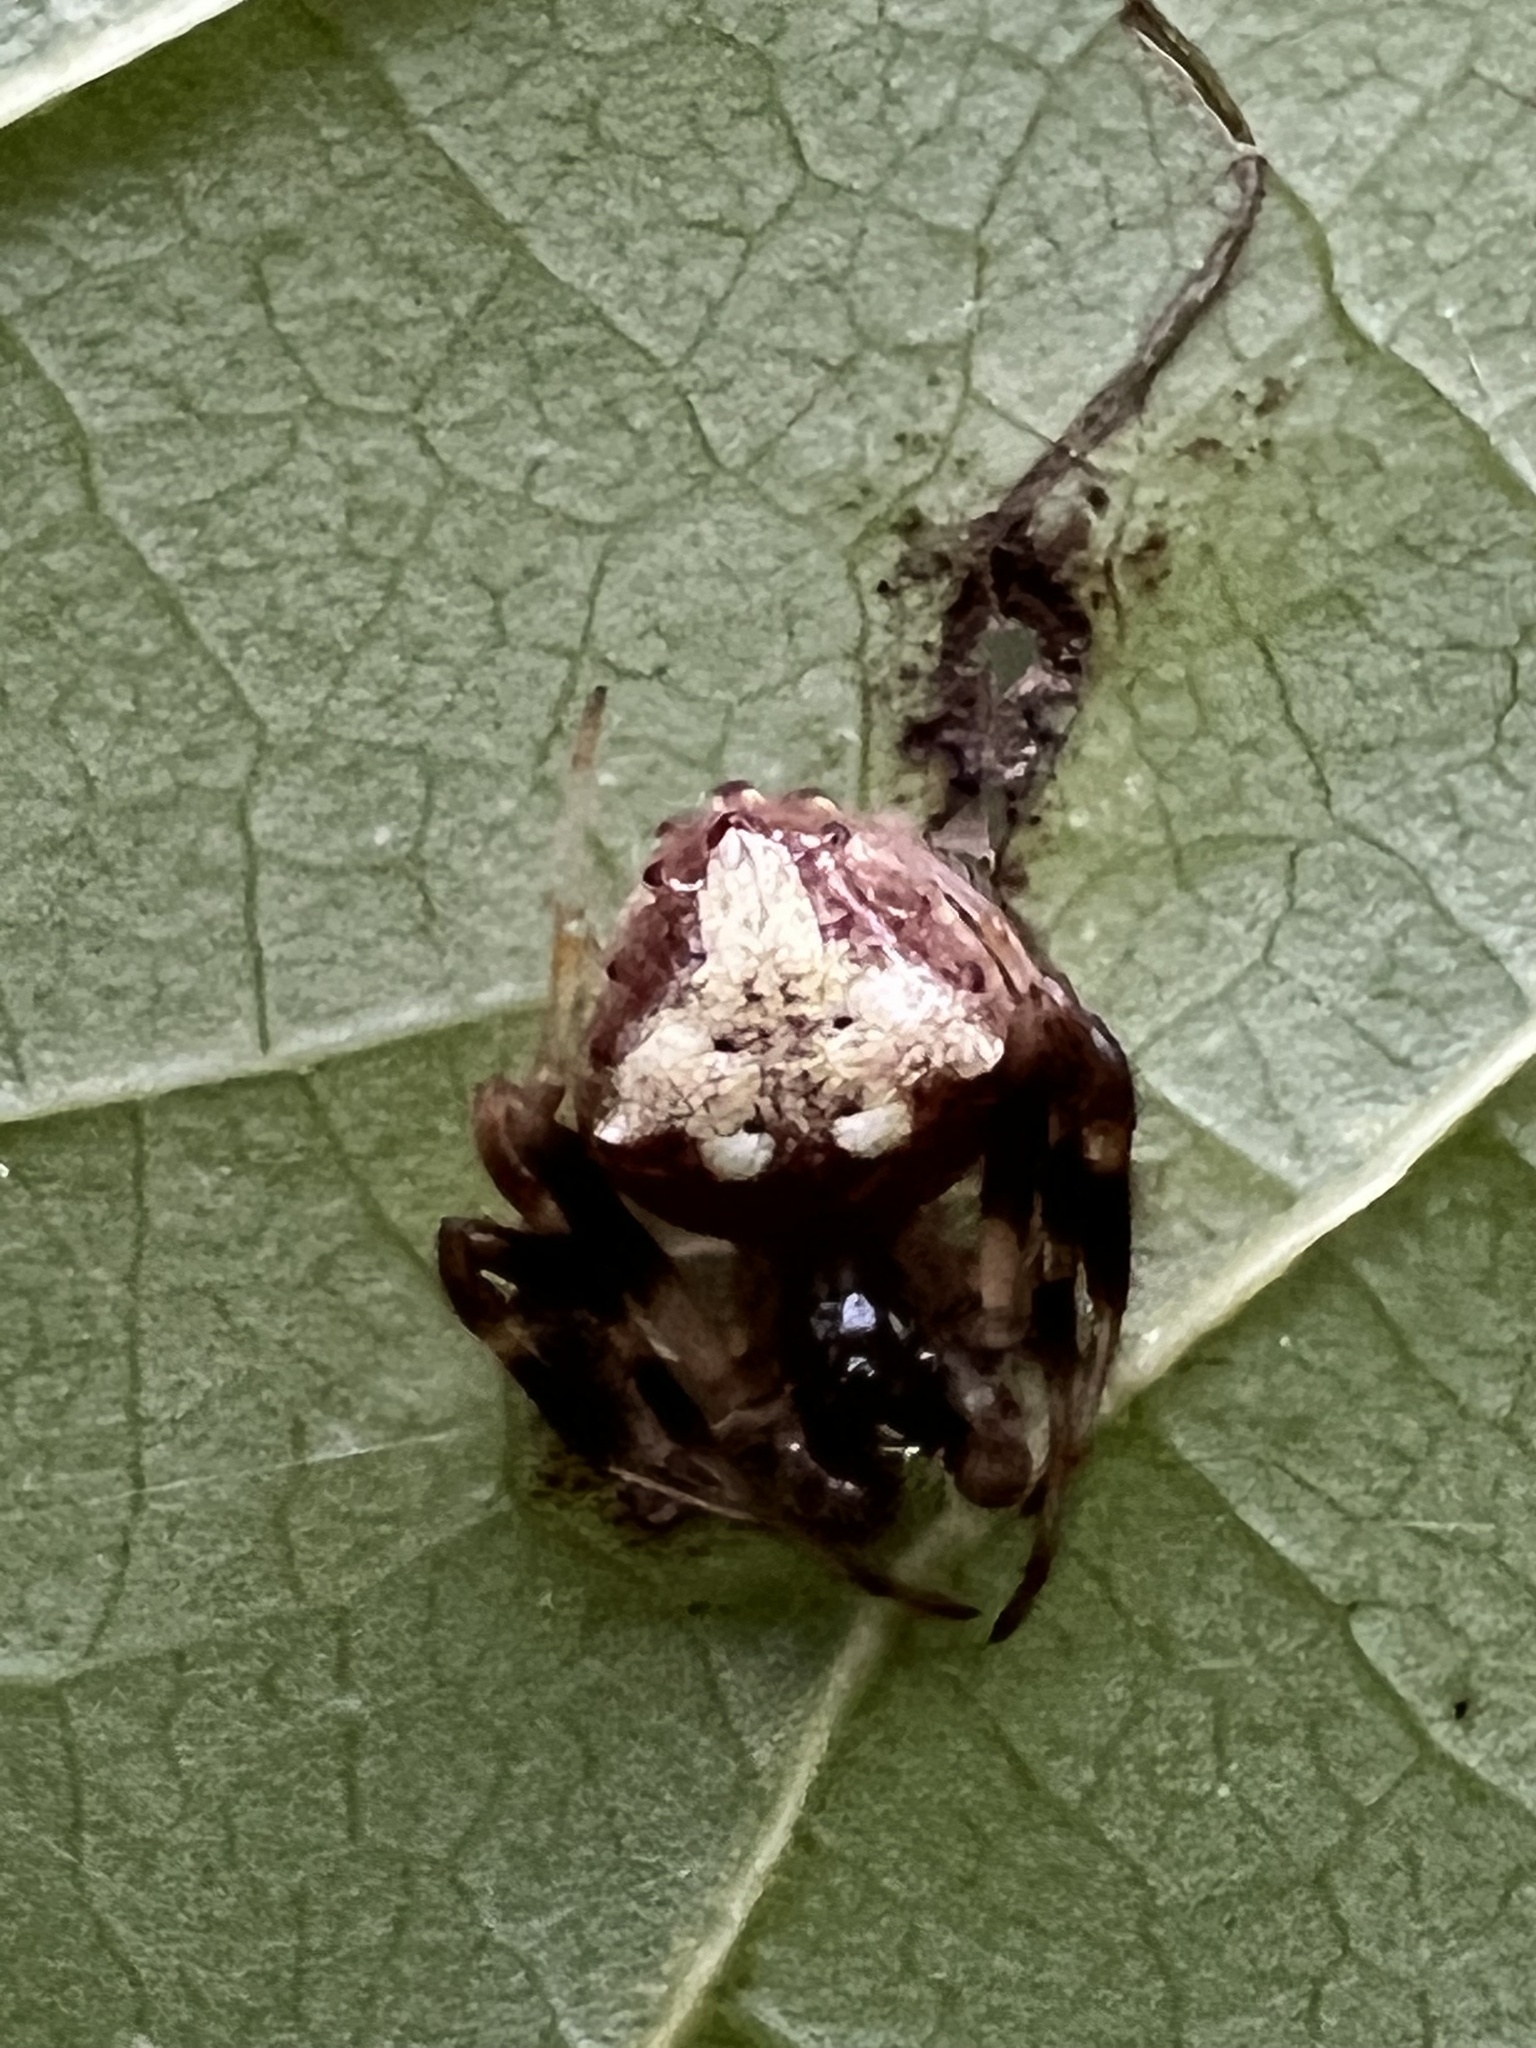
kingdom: Animalia
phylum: Arthropoda
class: Arachnida
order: Araneae
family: Araneidae
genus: Verrucosa
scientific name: Verrucosa arenata
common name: Orb weavers
